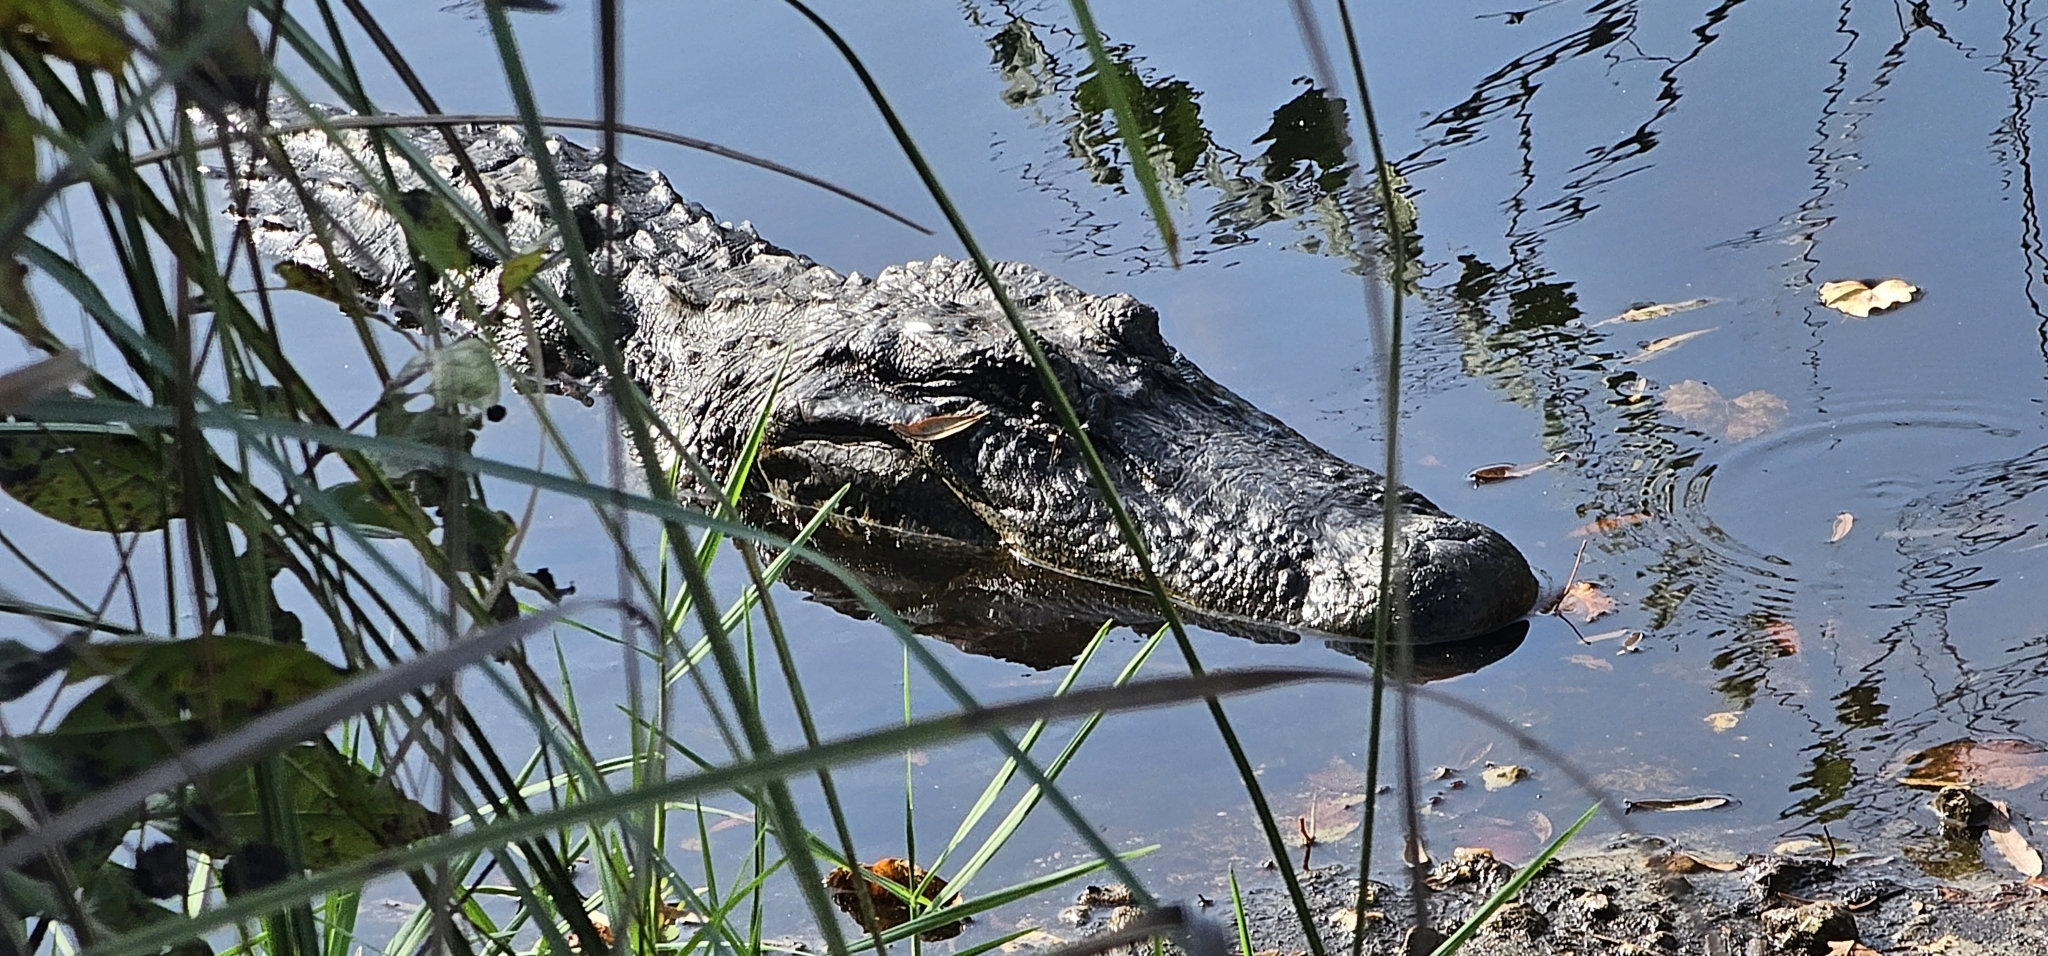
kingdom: Animalia
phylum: Chordata
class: Crocodylia
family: Alligatoridae
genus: Alligator
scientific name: Alligator mississippiensis
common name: American alligator
